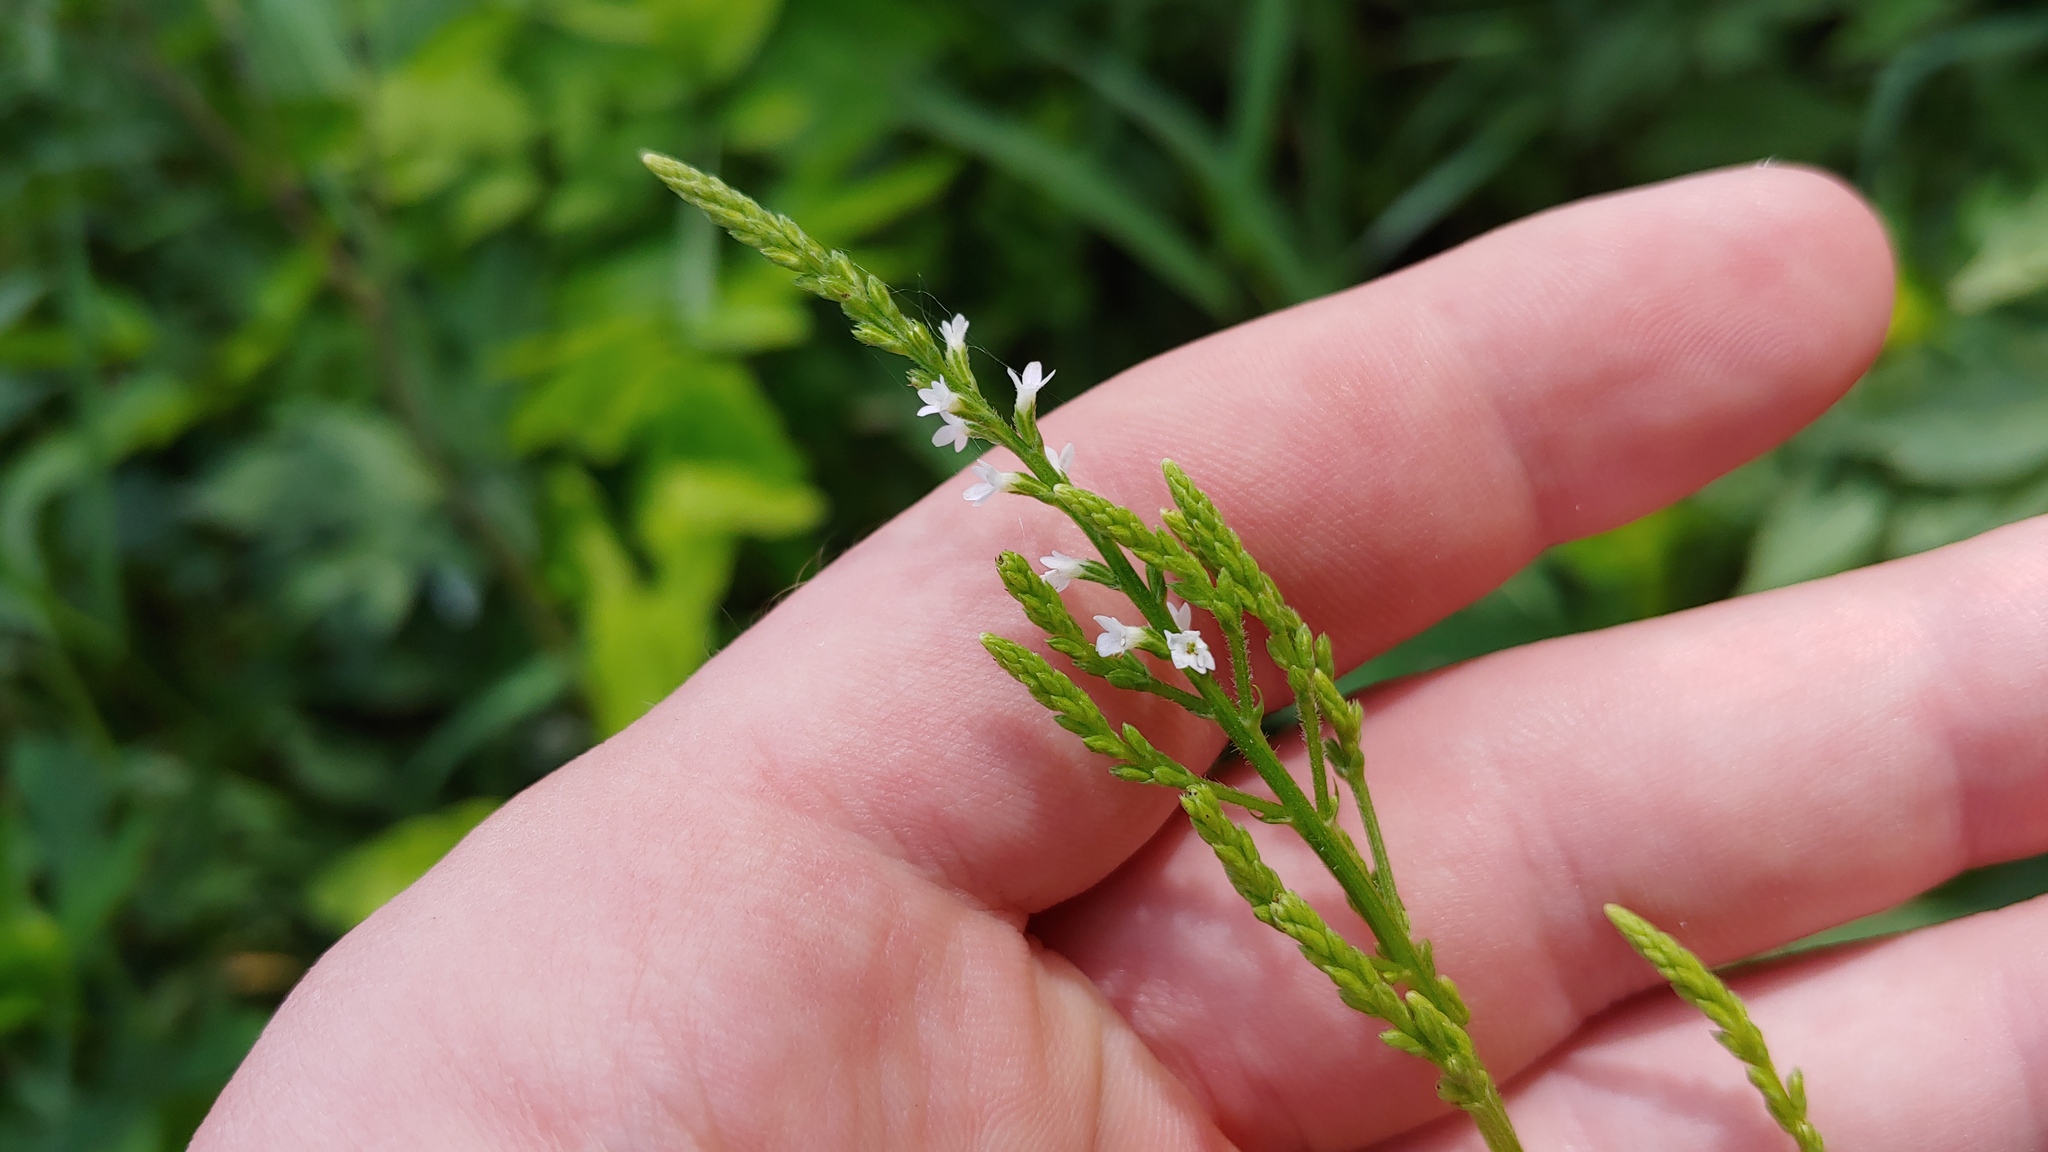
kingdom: Plantae
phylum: Tracheophyta
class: Magnoliopsida
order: Lamiales
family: Verbenaceae
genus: Verbena
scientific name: Verbena urticifolia
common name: Nettle-leaved vervain
